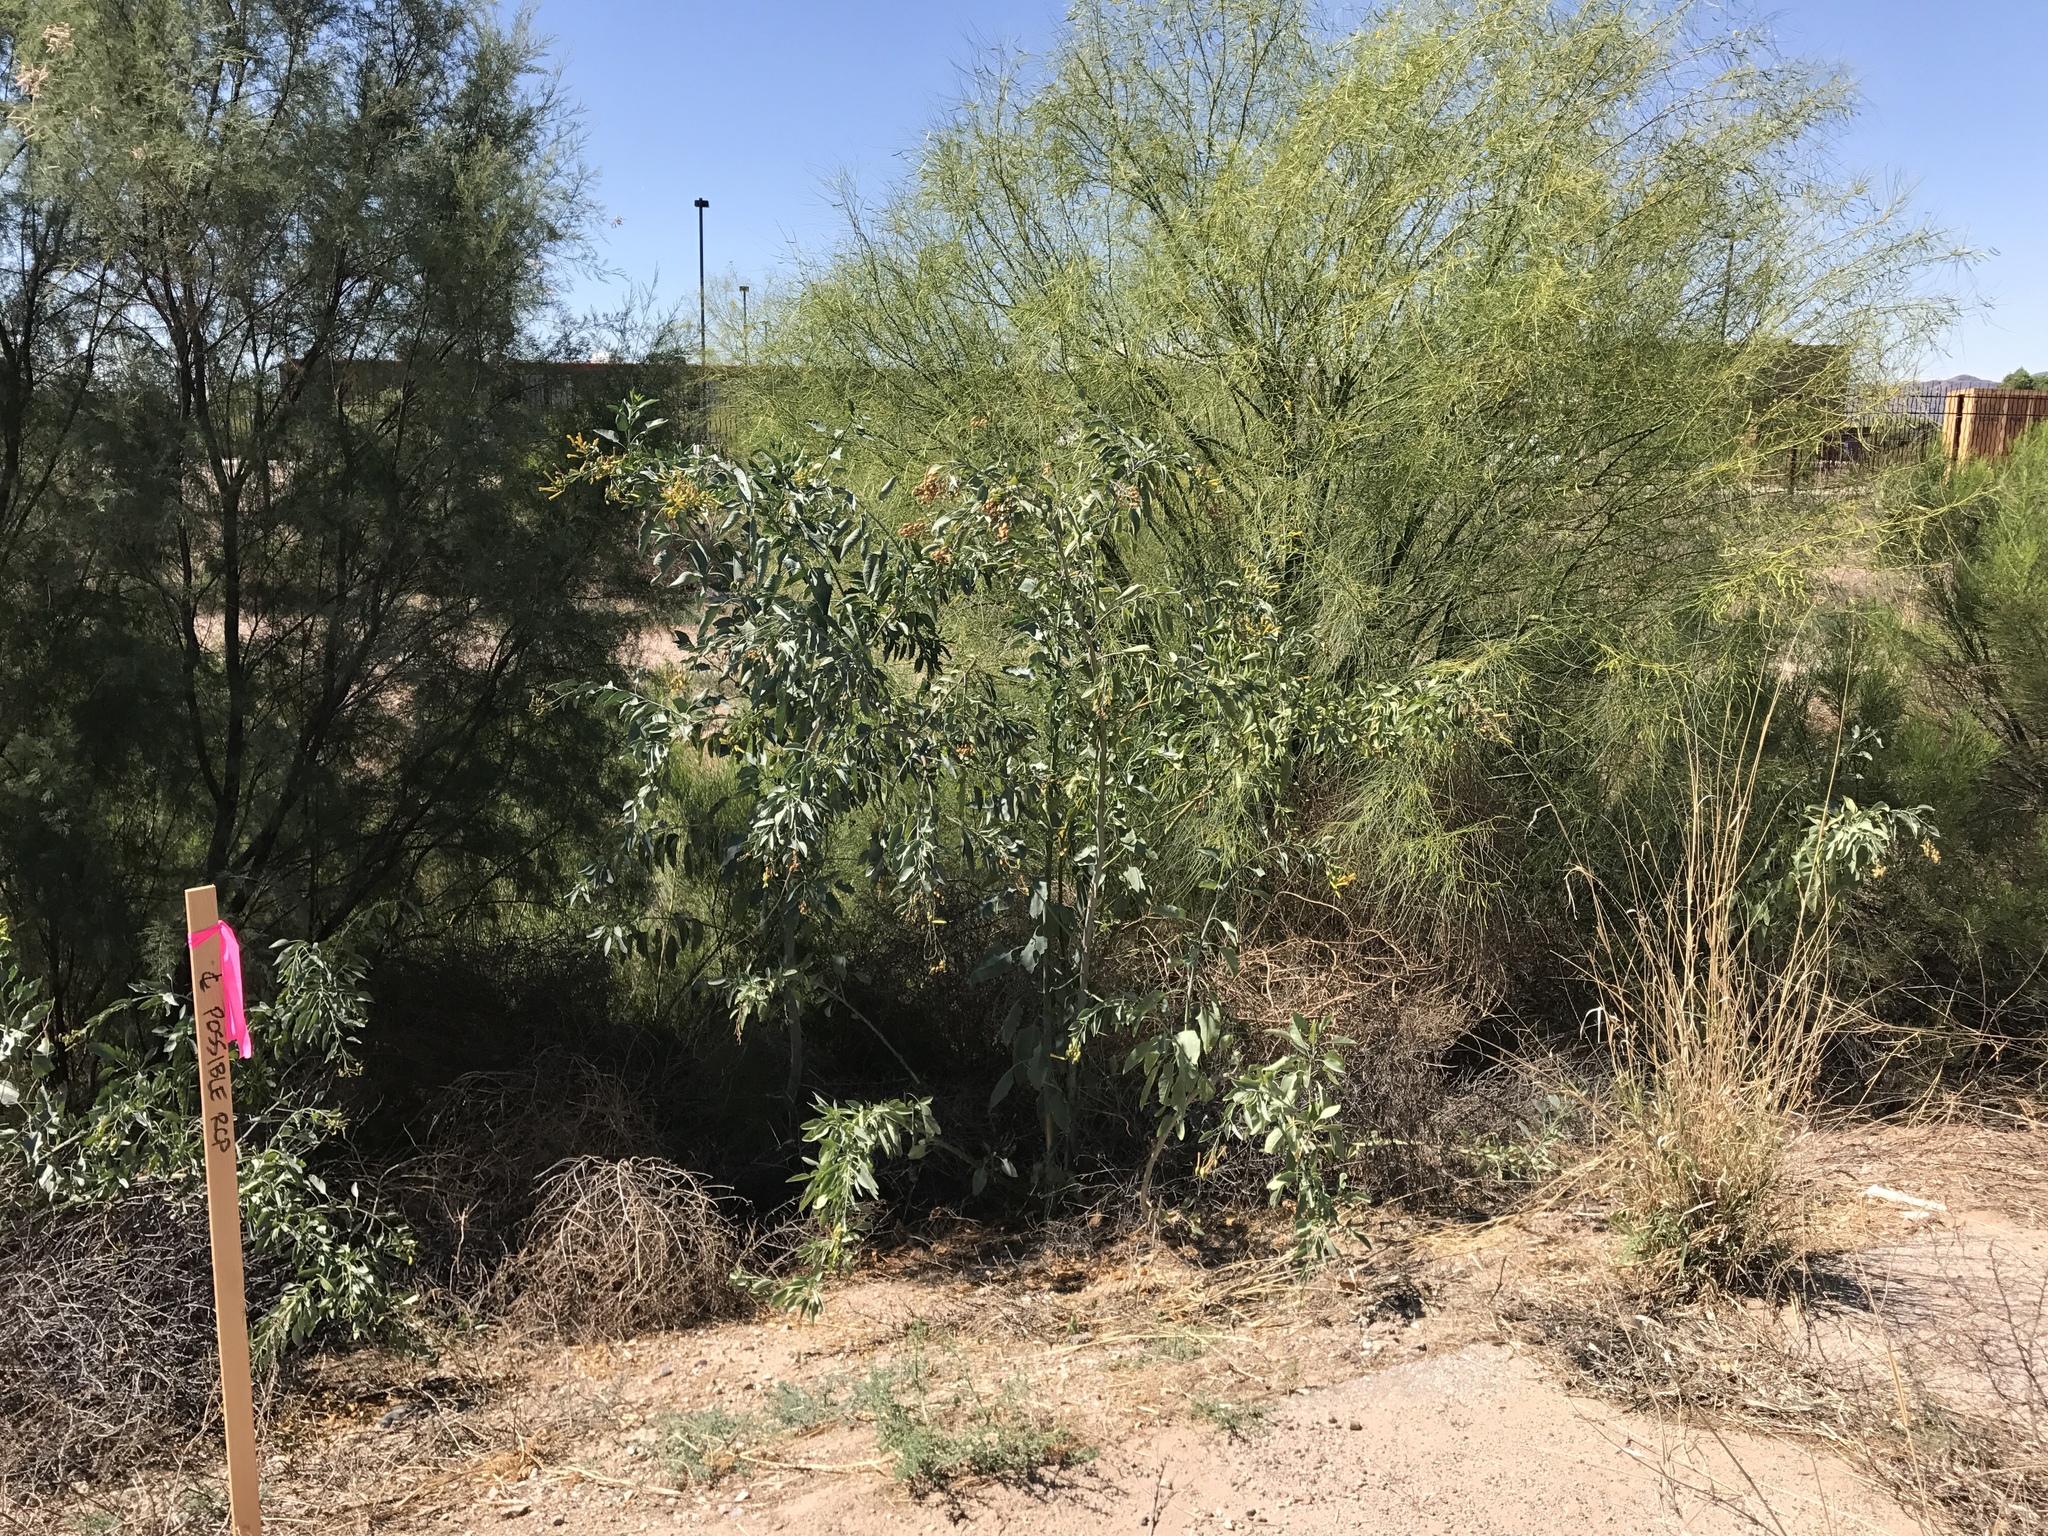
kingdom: Plantae
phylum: Tracheophyta
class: Magnoliopsida
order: Solanales
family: Solanaceae
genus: Nicotiana
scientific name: Nicotiana glauca
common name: Tree tobacco
